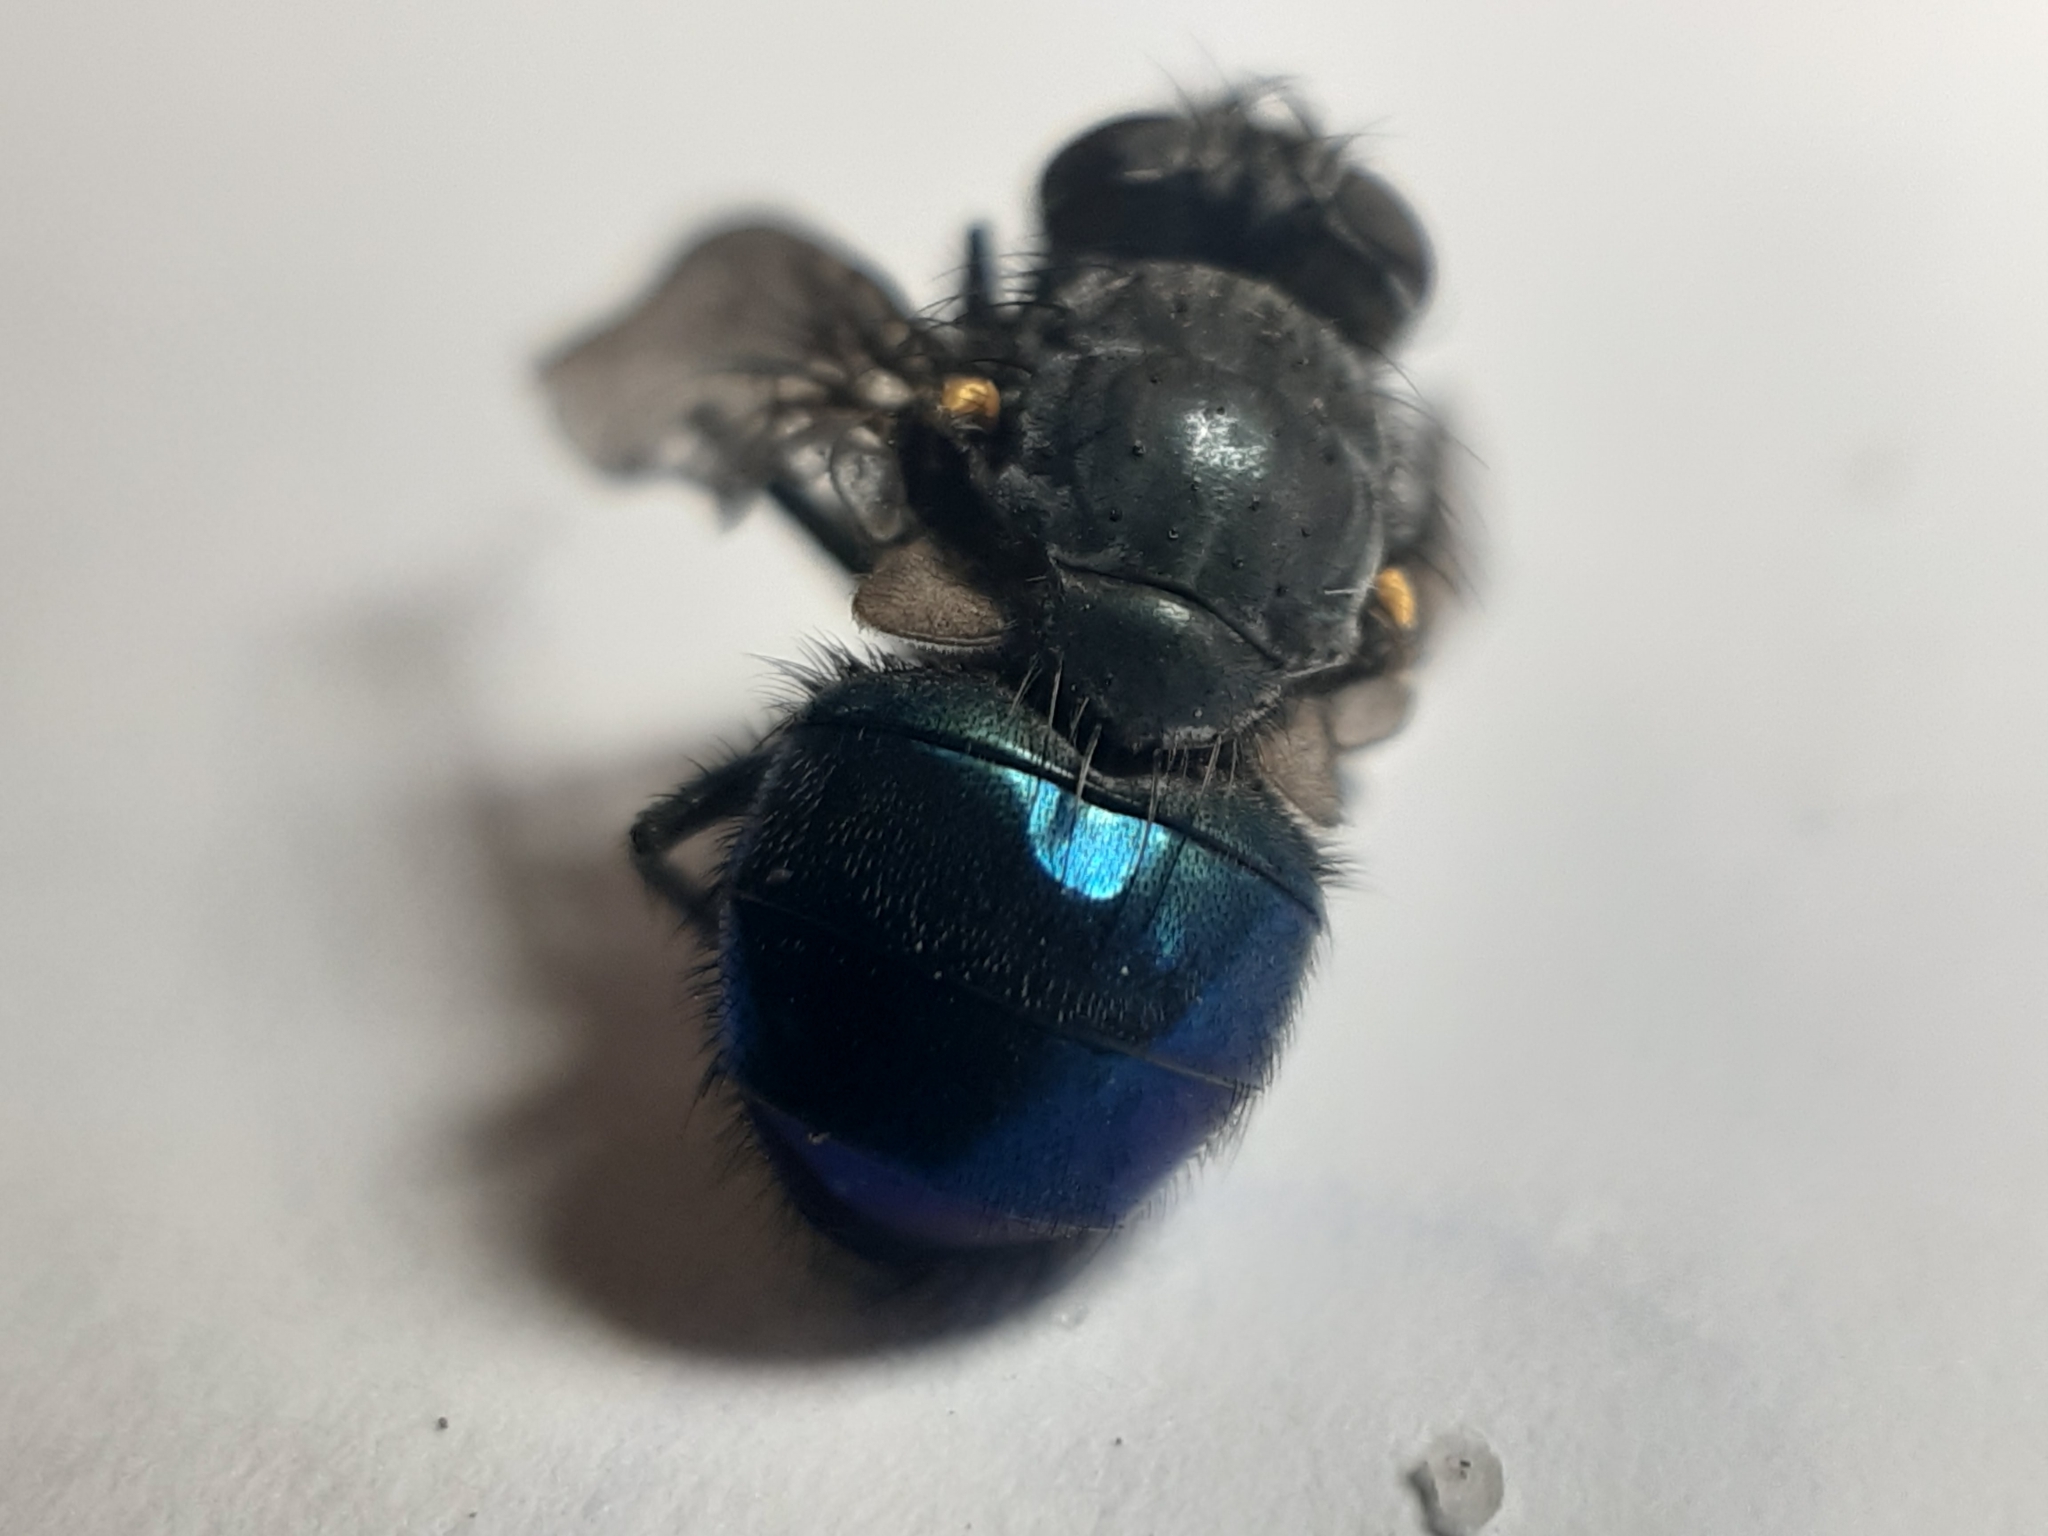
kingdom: Animalia
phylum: Arthropoda
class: Insecta
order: Diptera
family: Calliphoridae
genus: Calliphora
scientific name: Calliphora quadrimaculata
